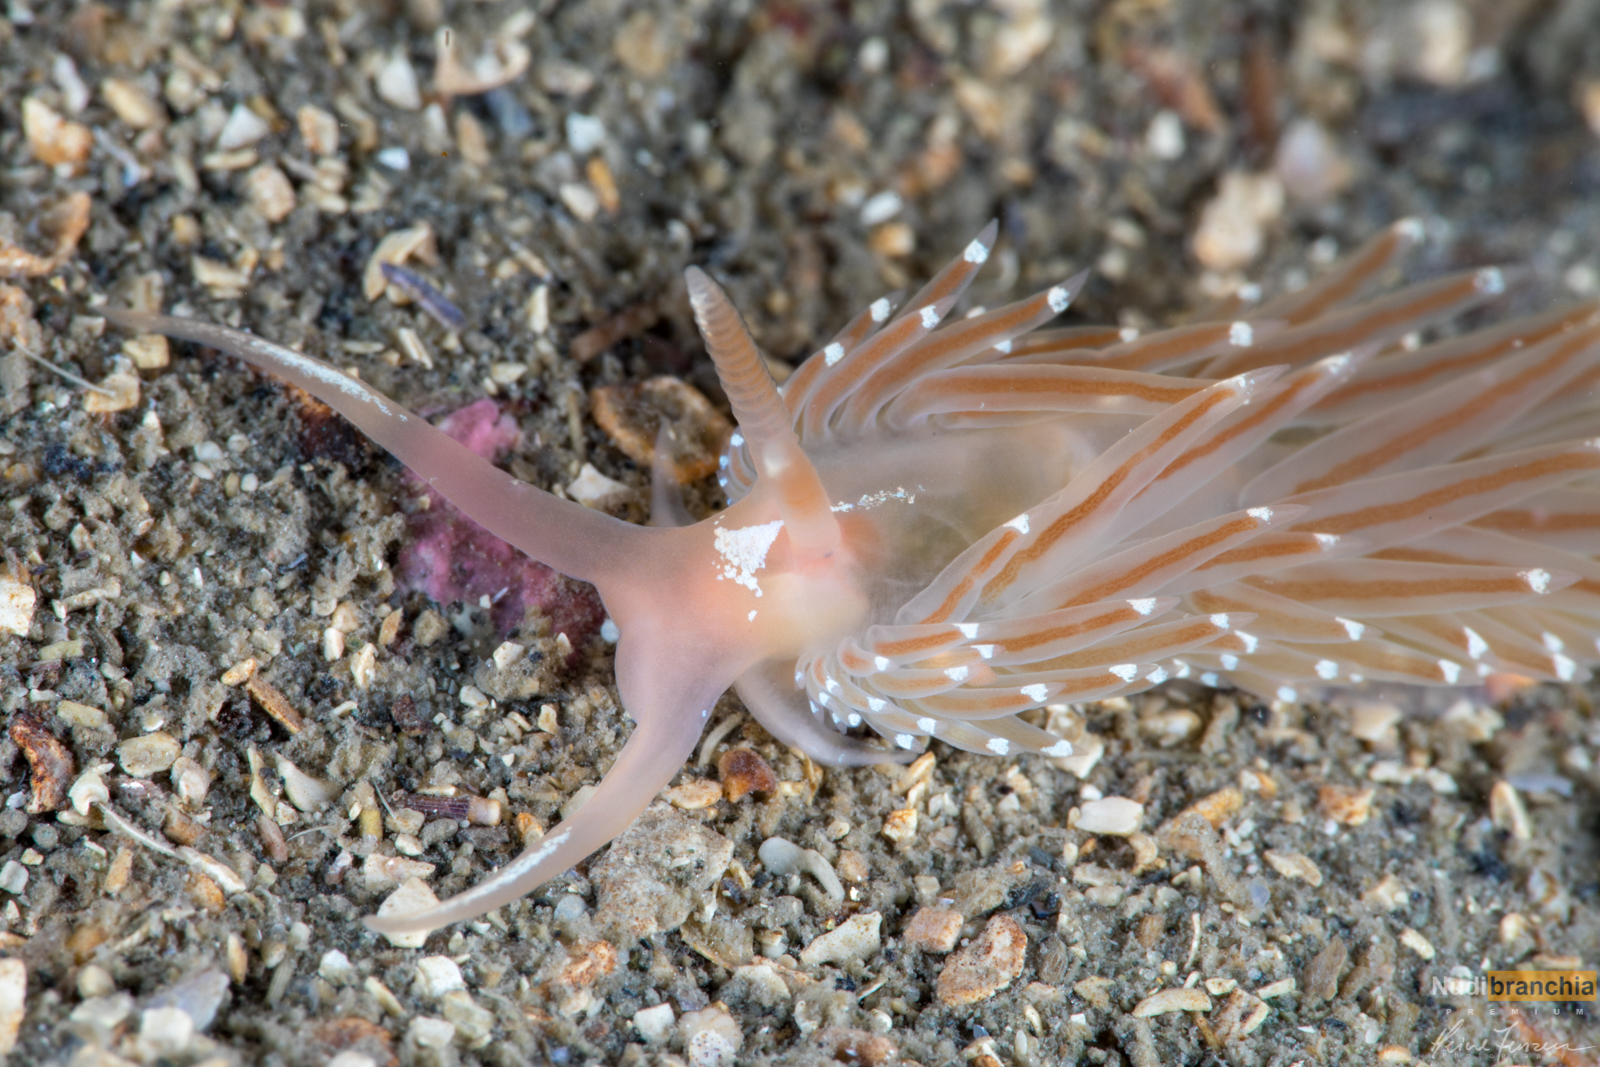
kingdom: Animalia
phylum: Mollusca
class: Gastropoda
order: Nudibranchia
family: Facelinidae
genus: Facelina
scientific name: Facelina bostoniensis
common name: Boston facelina
